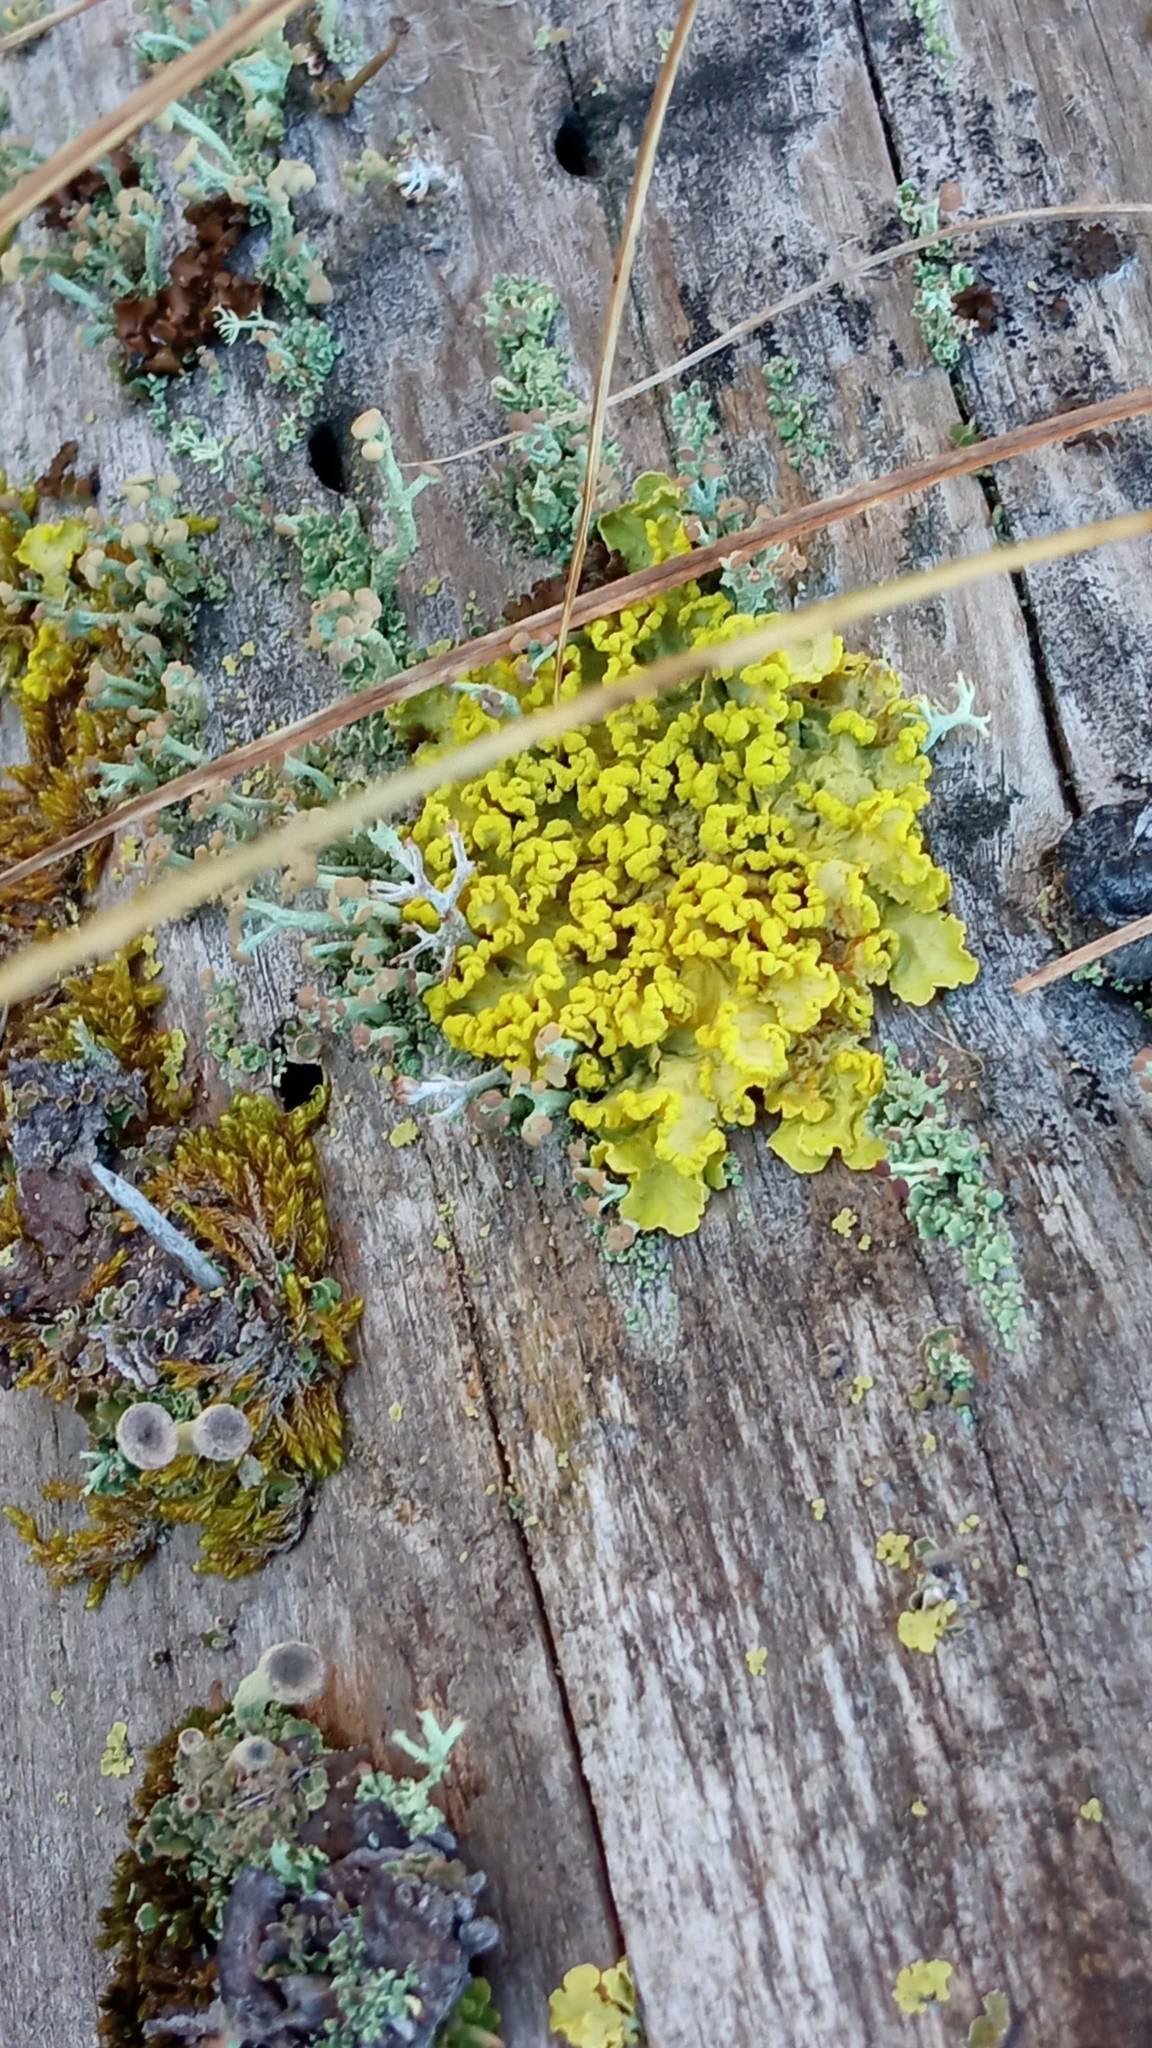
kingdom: Fungi
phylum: Ascomycota
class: Lecanoromycetes
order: Lecanorales
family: Parmeliaceae
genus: Vulpicida
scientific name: Vulpicida pinastri
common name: Powdered sunshine lichen
